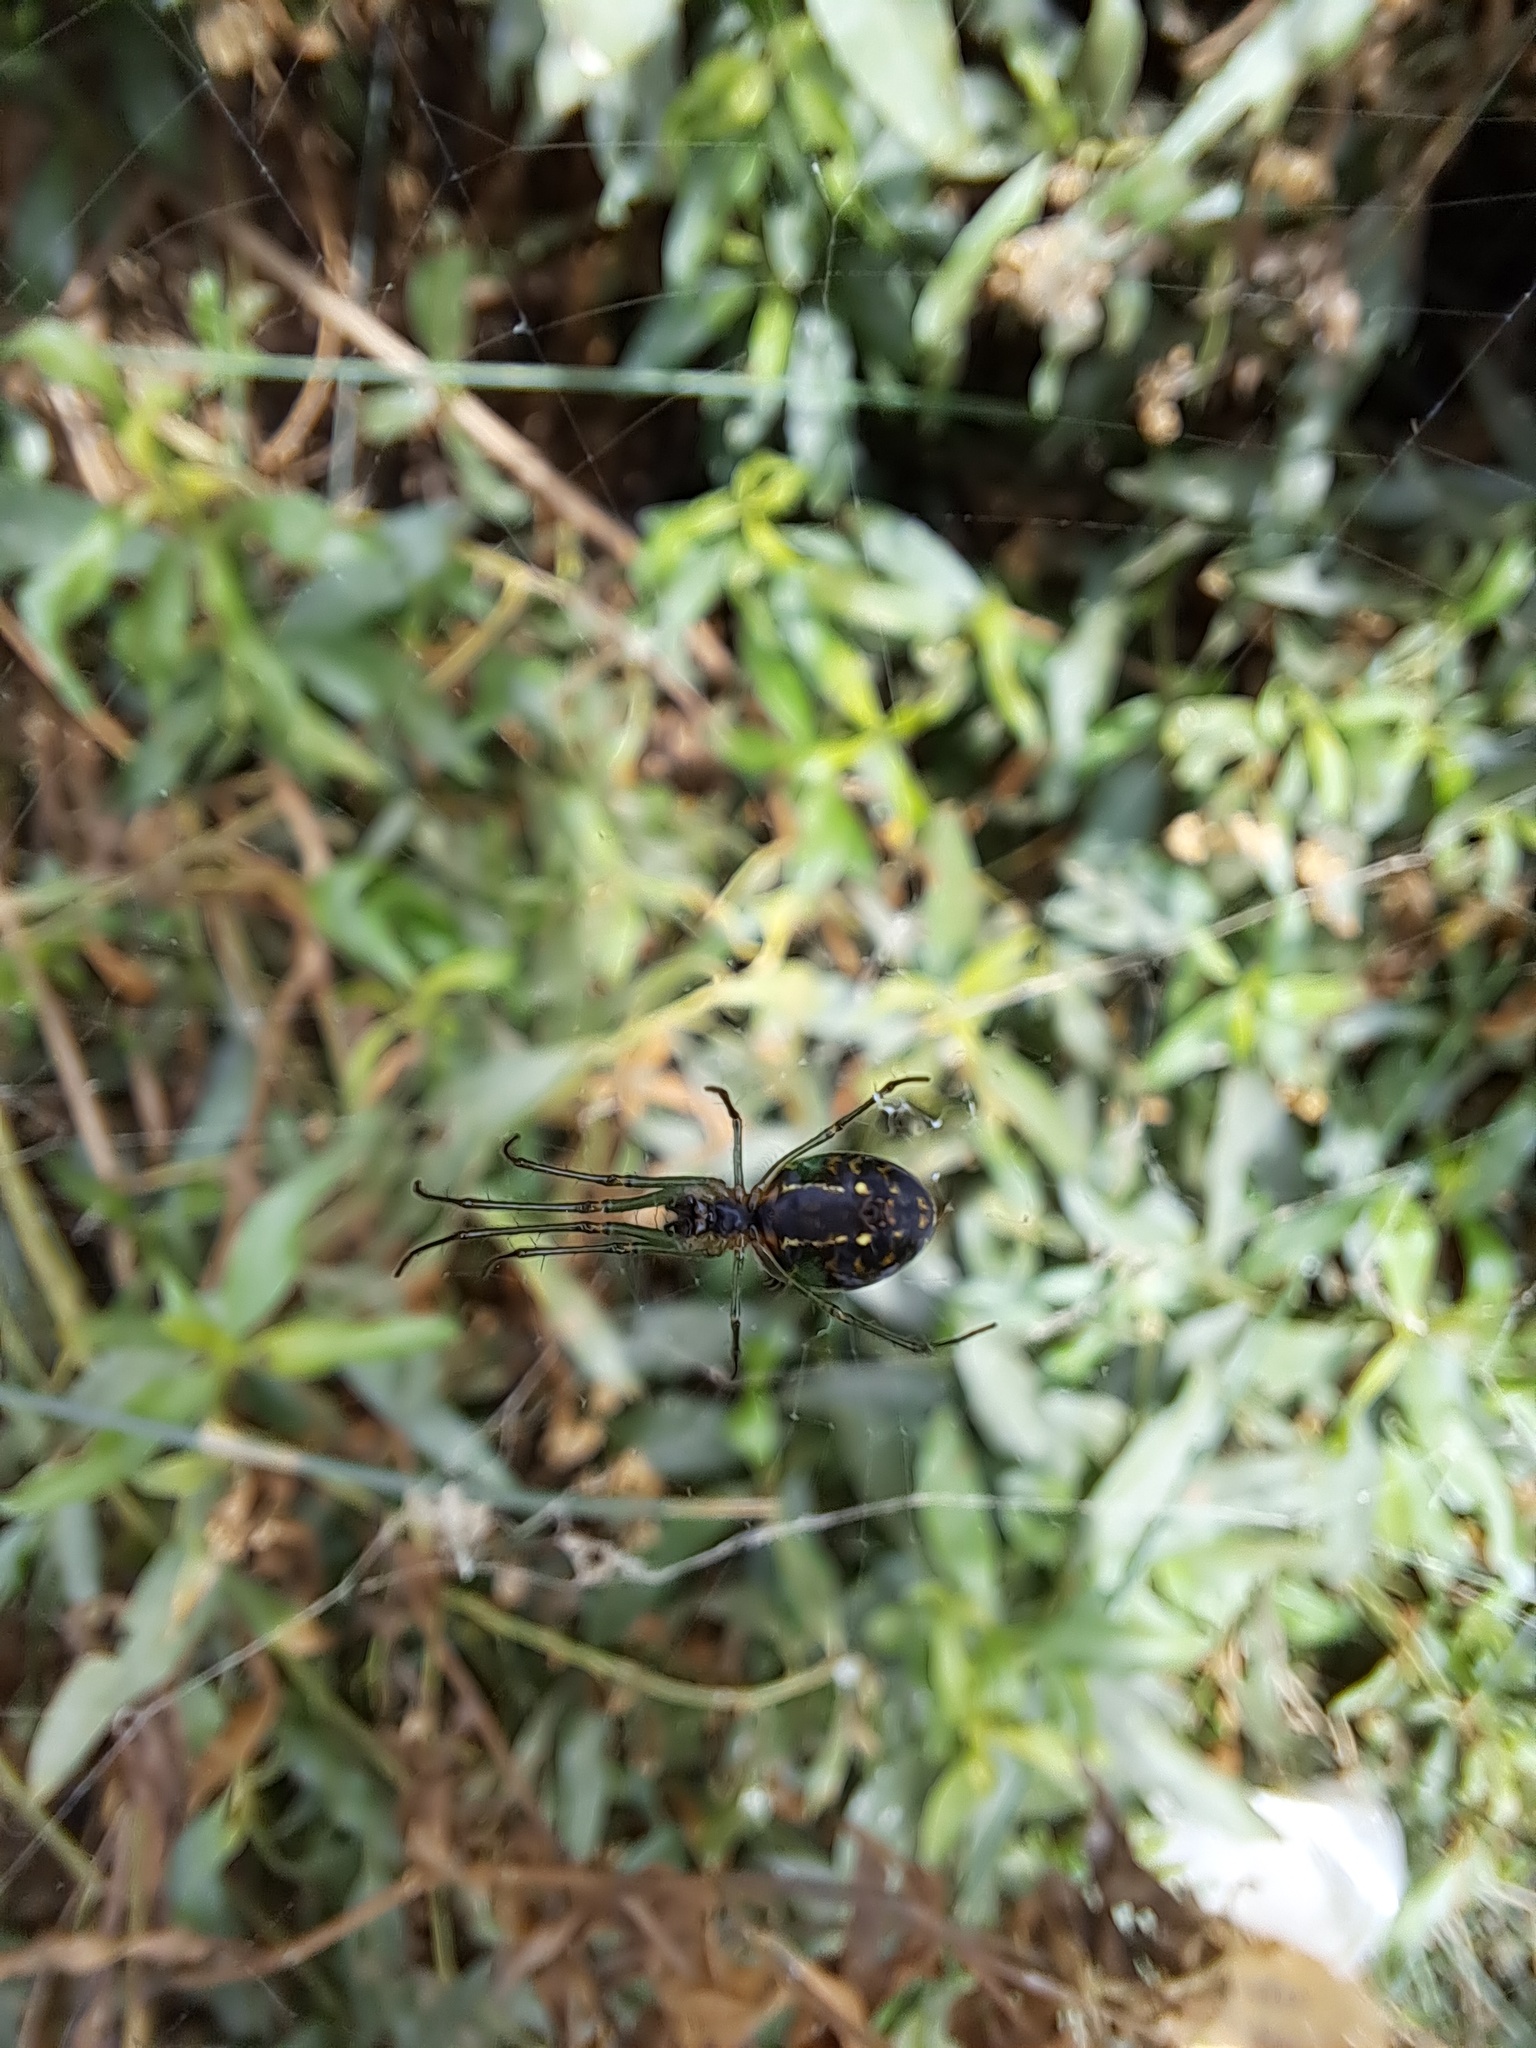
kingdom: Animalia
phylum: Arthropoda
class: Arachnida
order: Araneae
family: Tetragnathidae
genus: Leucauge
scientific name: Leucauge volupis
